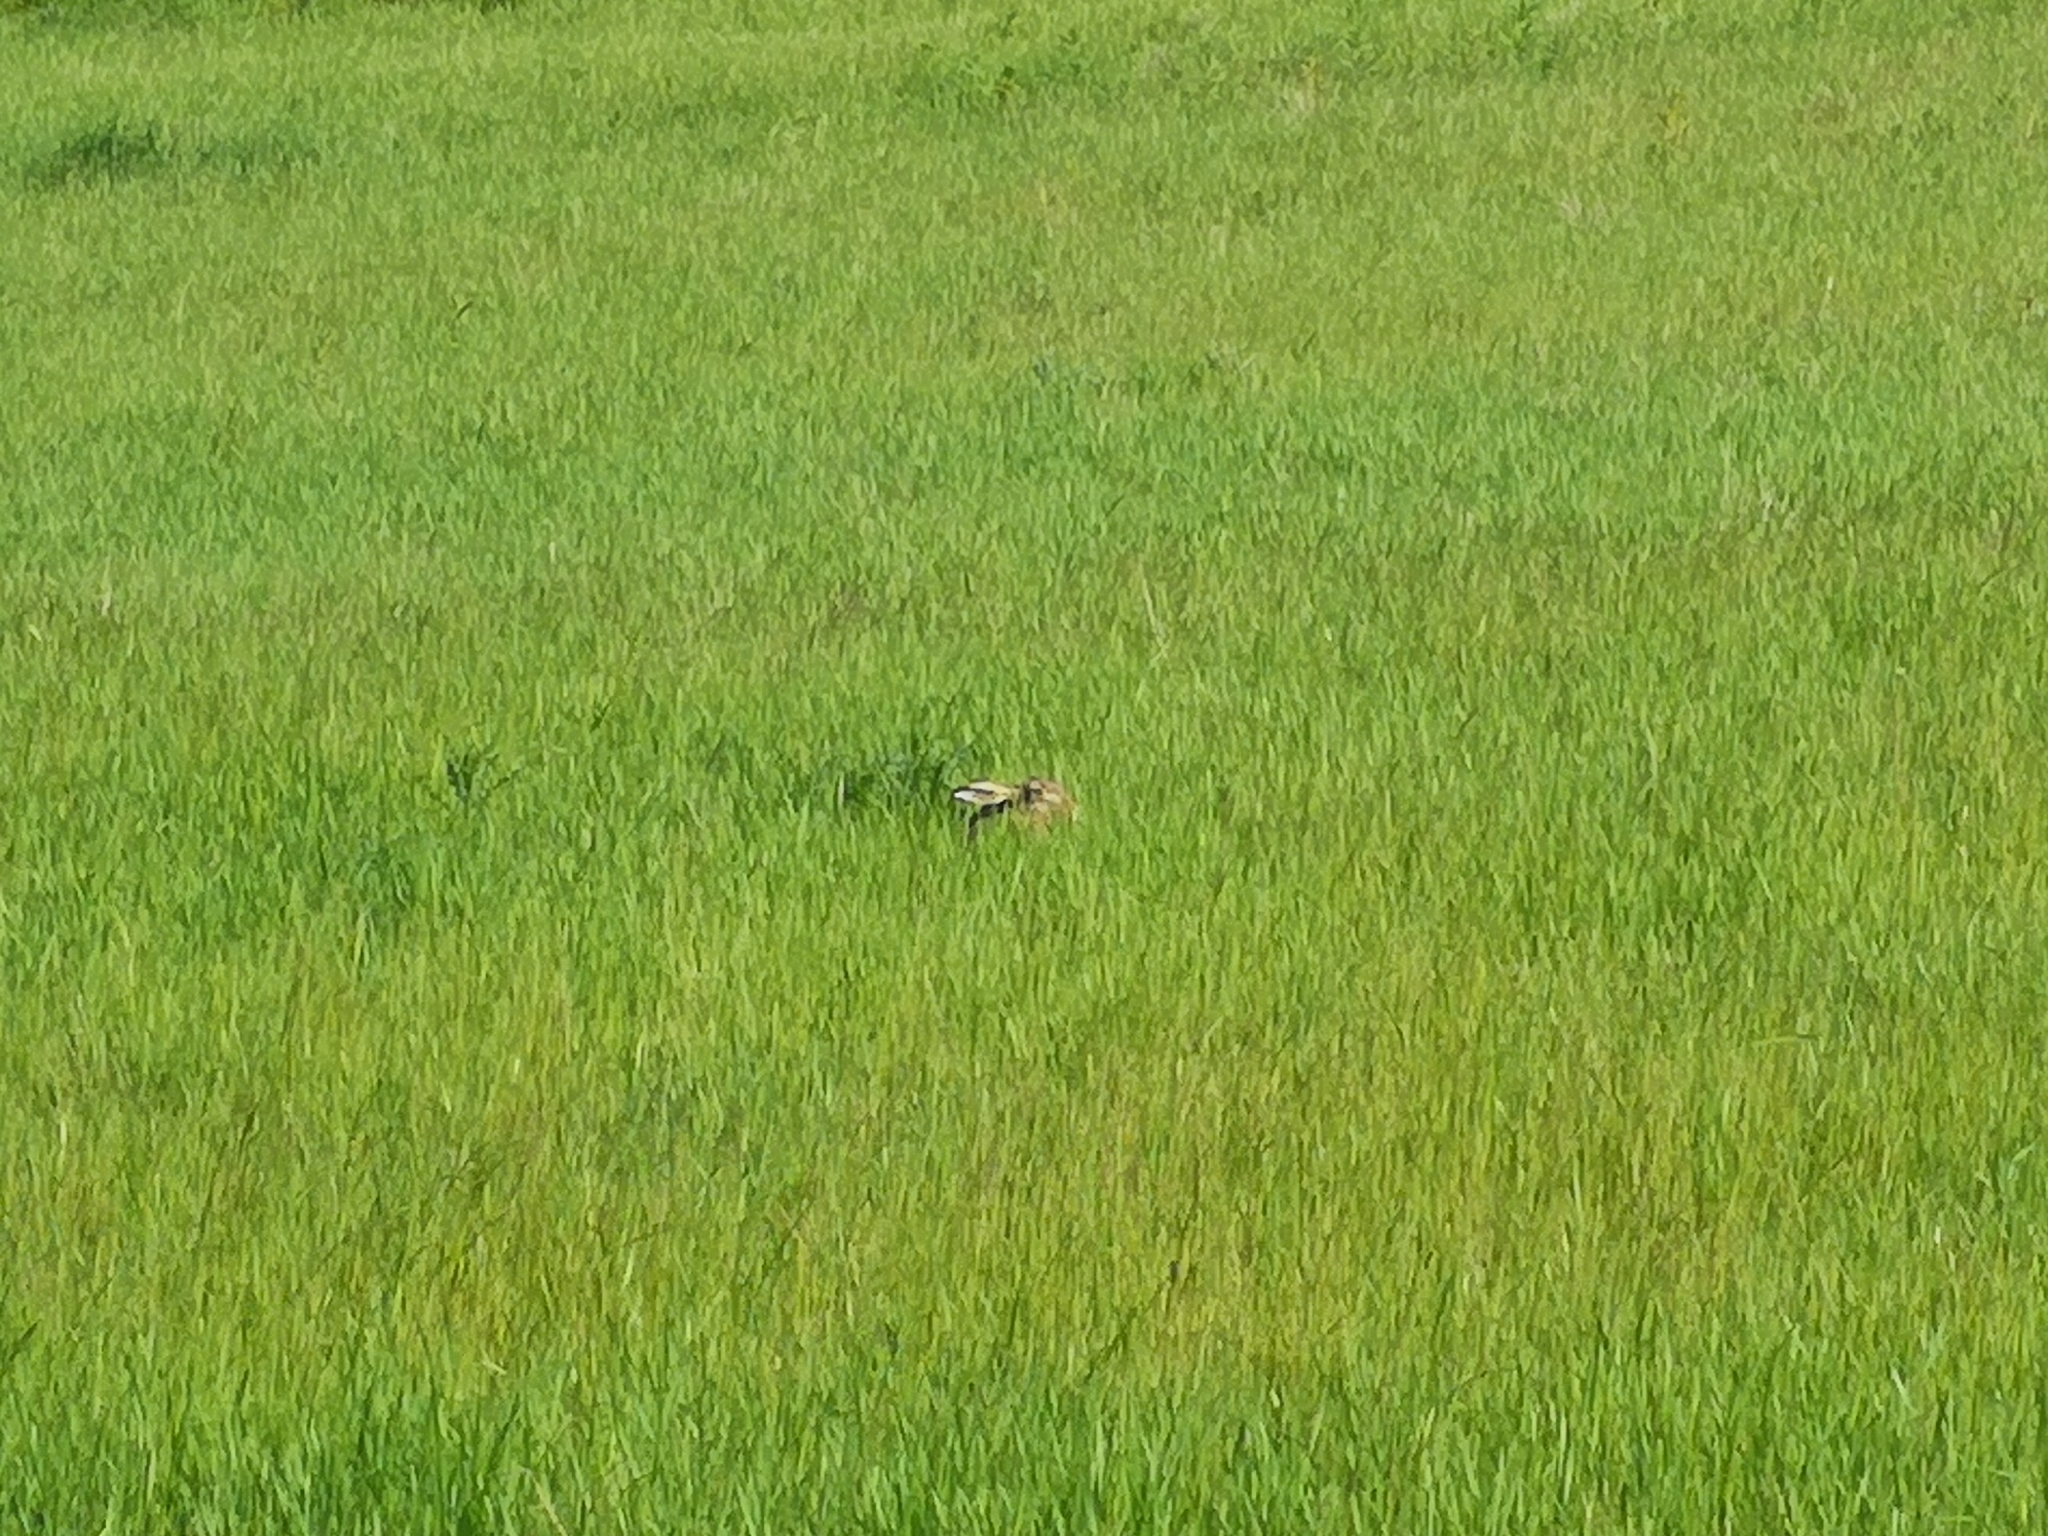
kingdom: Animalia
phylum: Chordata
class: Mammalia
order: Lagomorpha
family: Leporidae
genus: Lepus
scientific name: Lepus europaeus
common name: European hare
